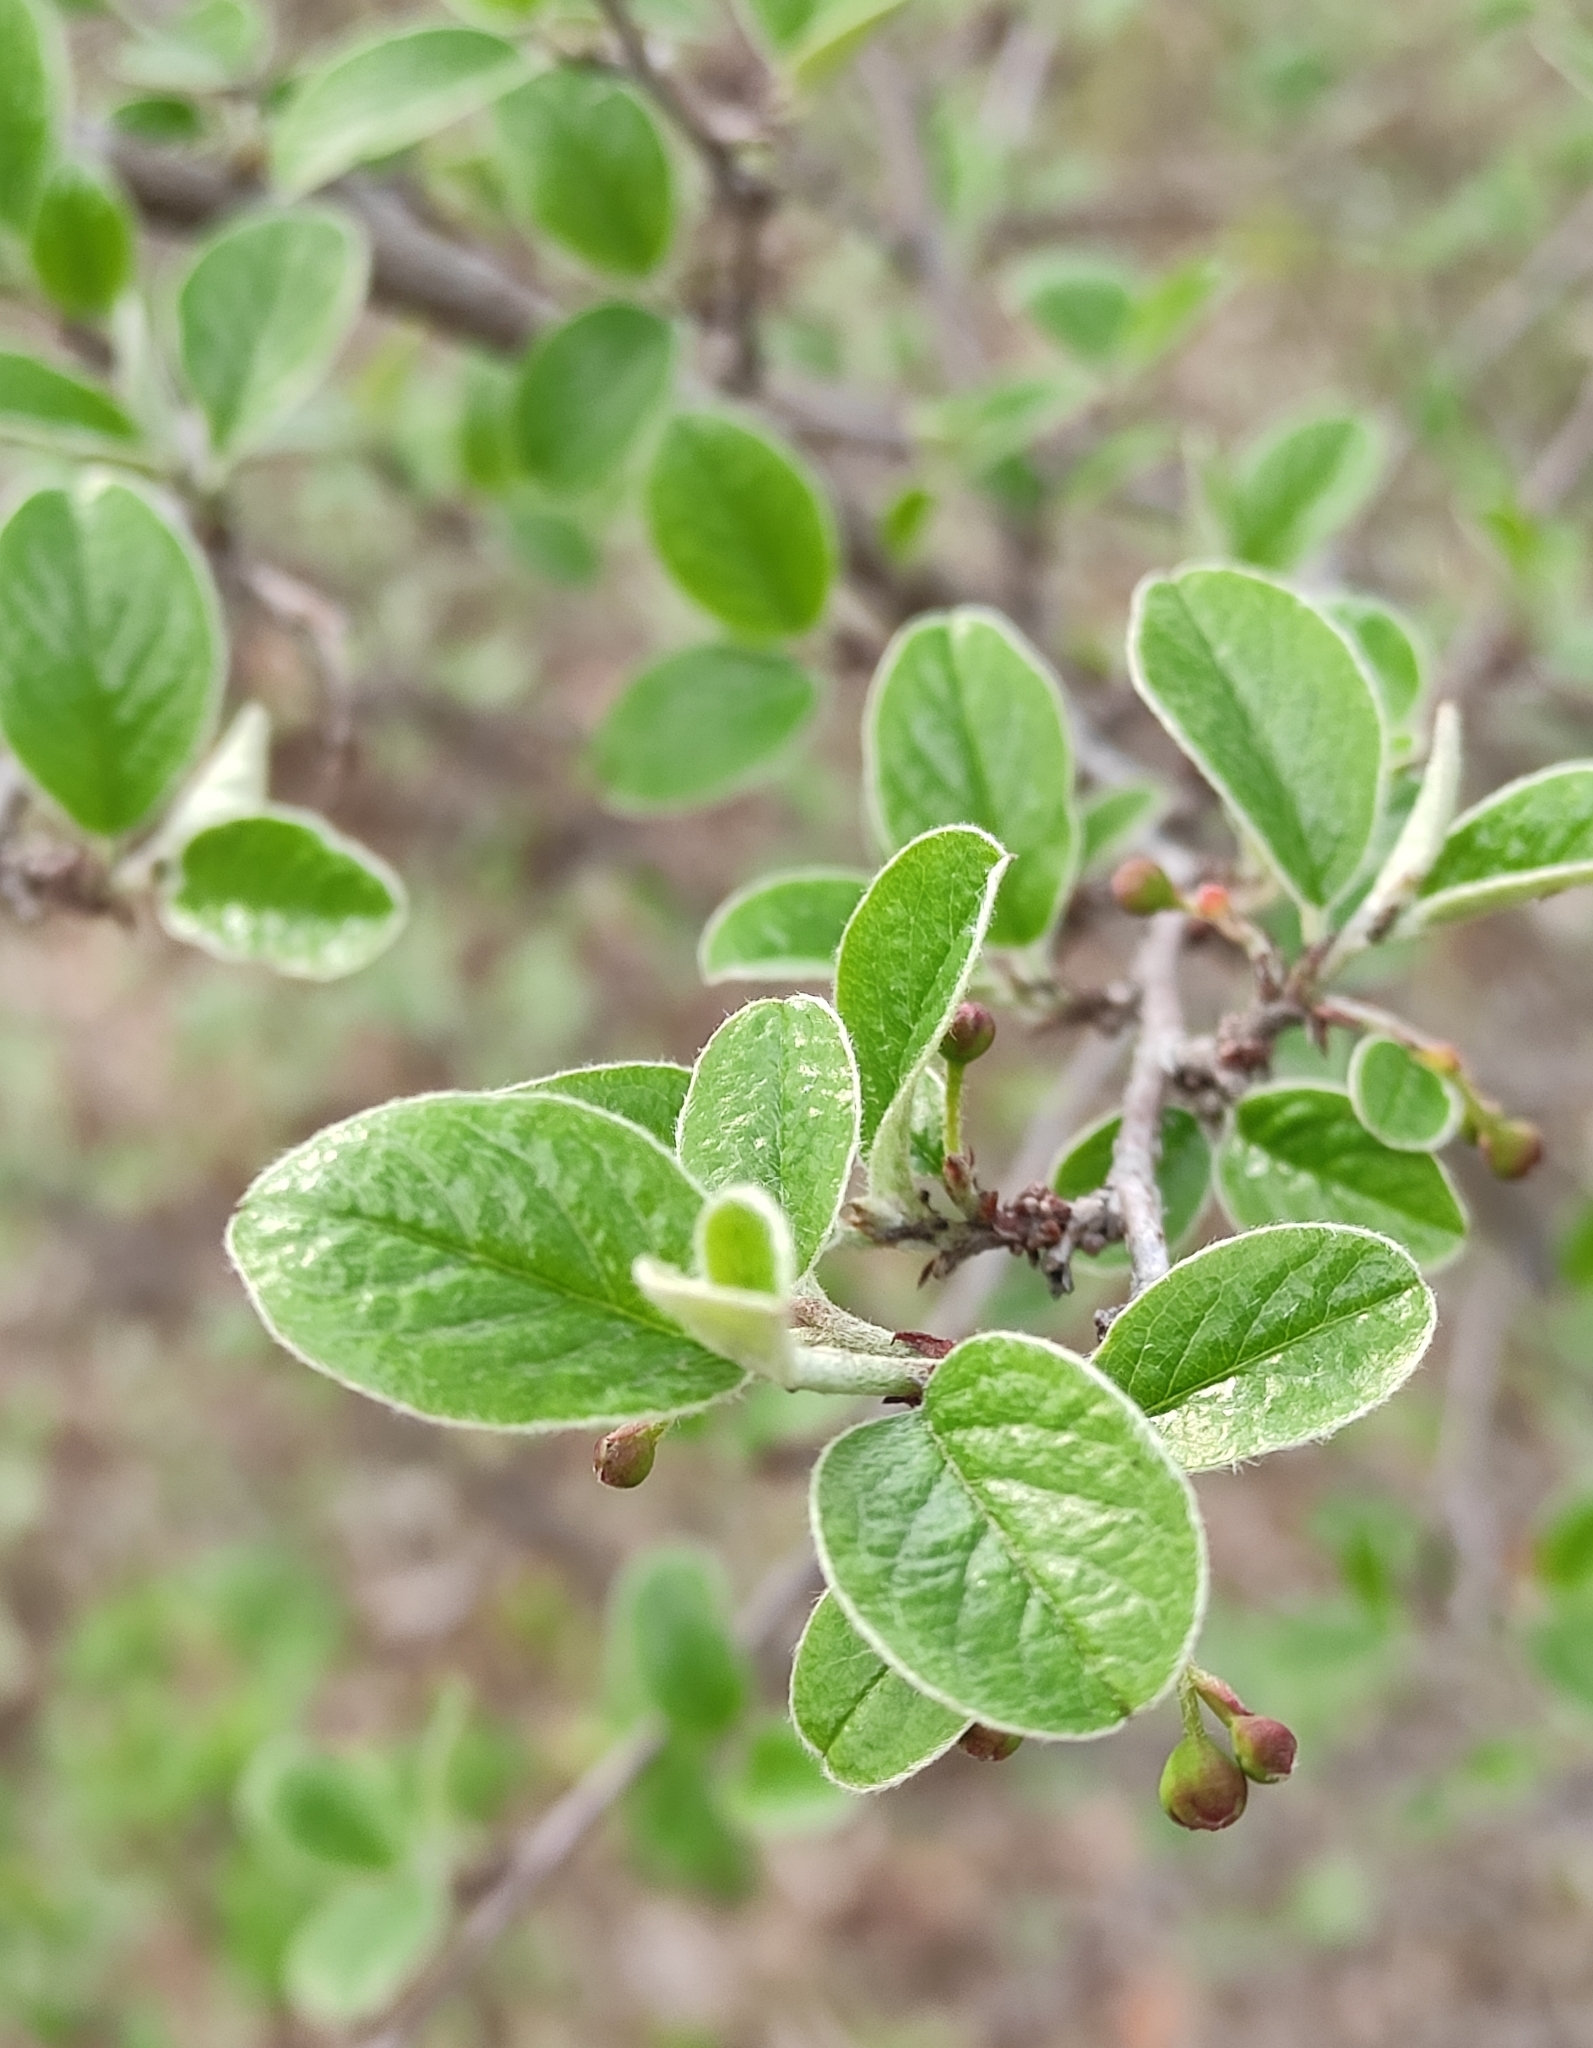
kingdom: Plantae
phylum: Tracheophyta
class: Magnoliopsida
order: Rosales
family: Rosaceae
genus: Cotoneaster
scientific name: Cotoneaster melanocarpus
